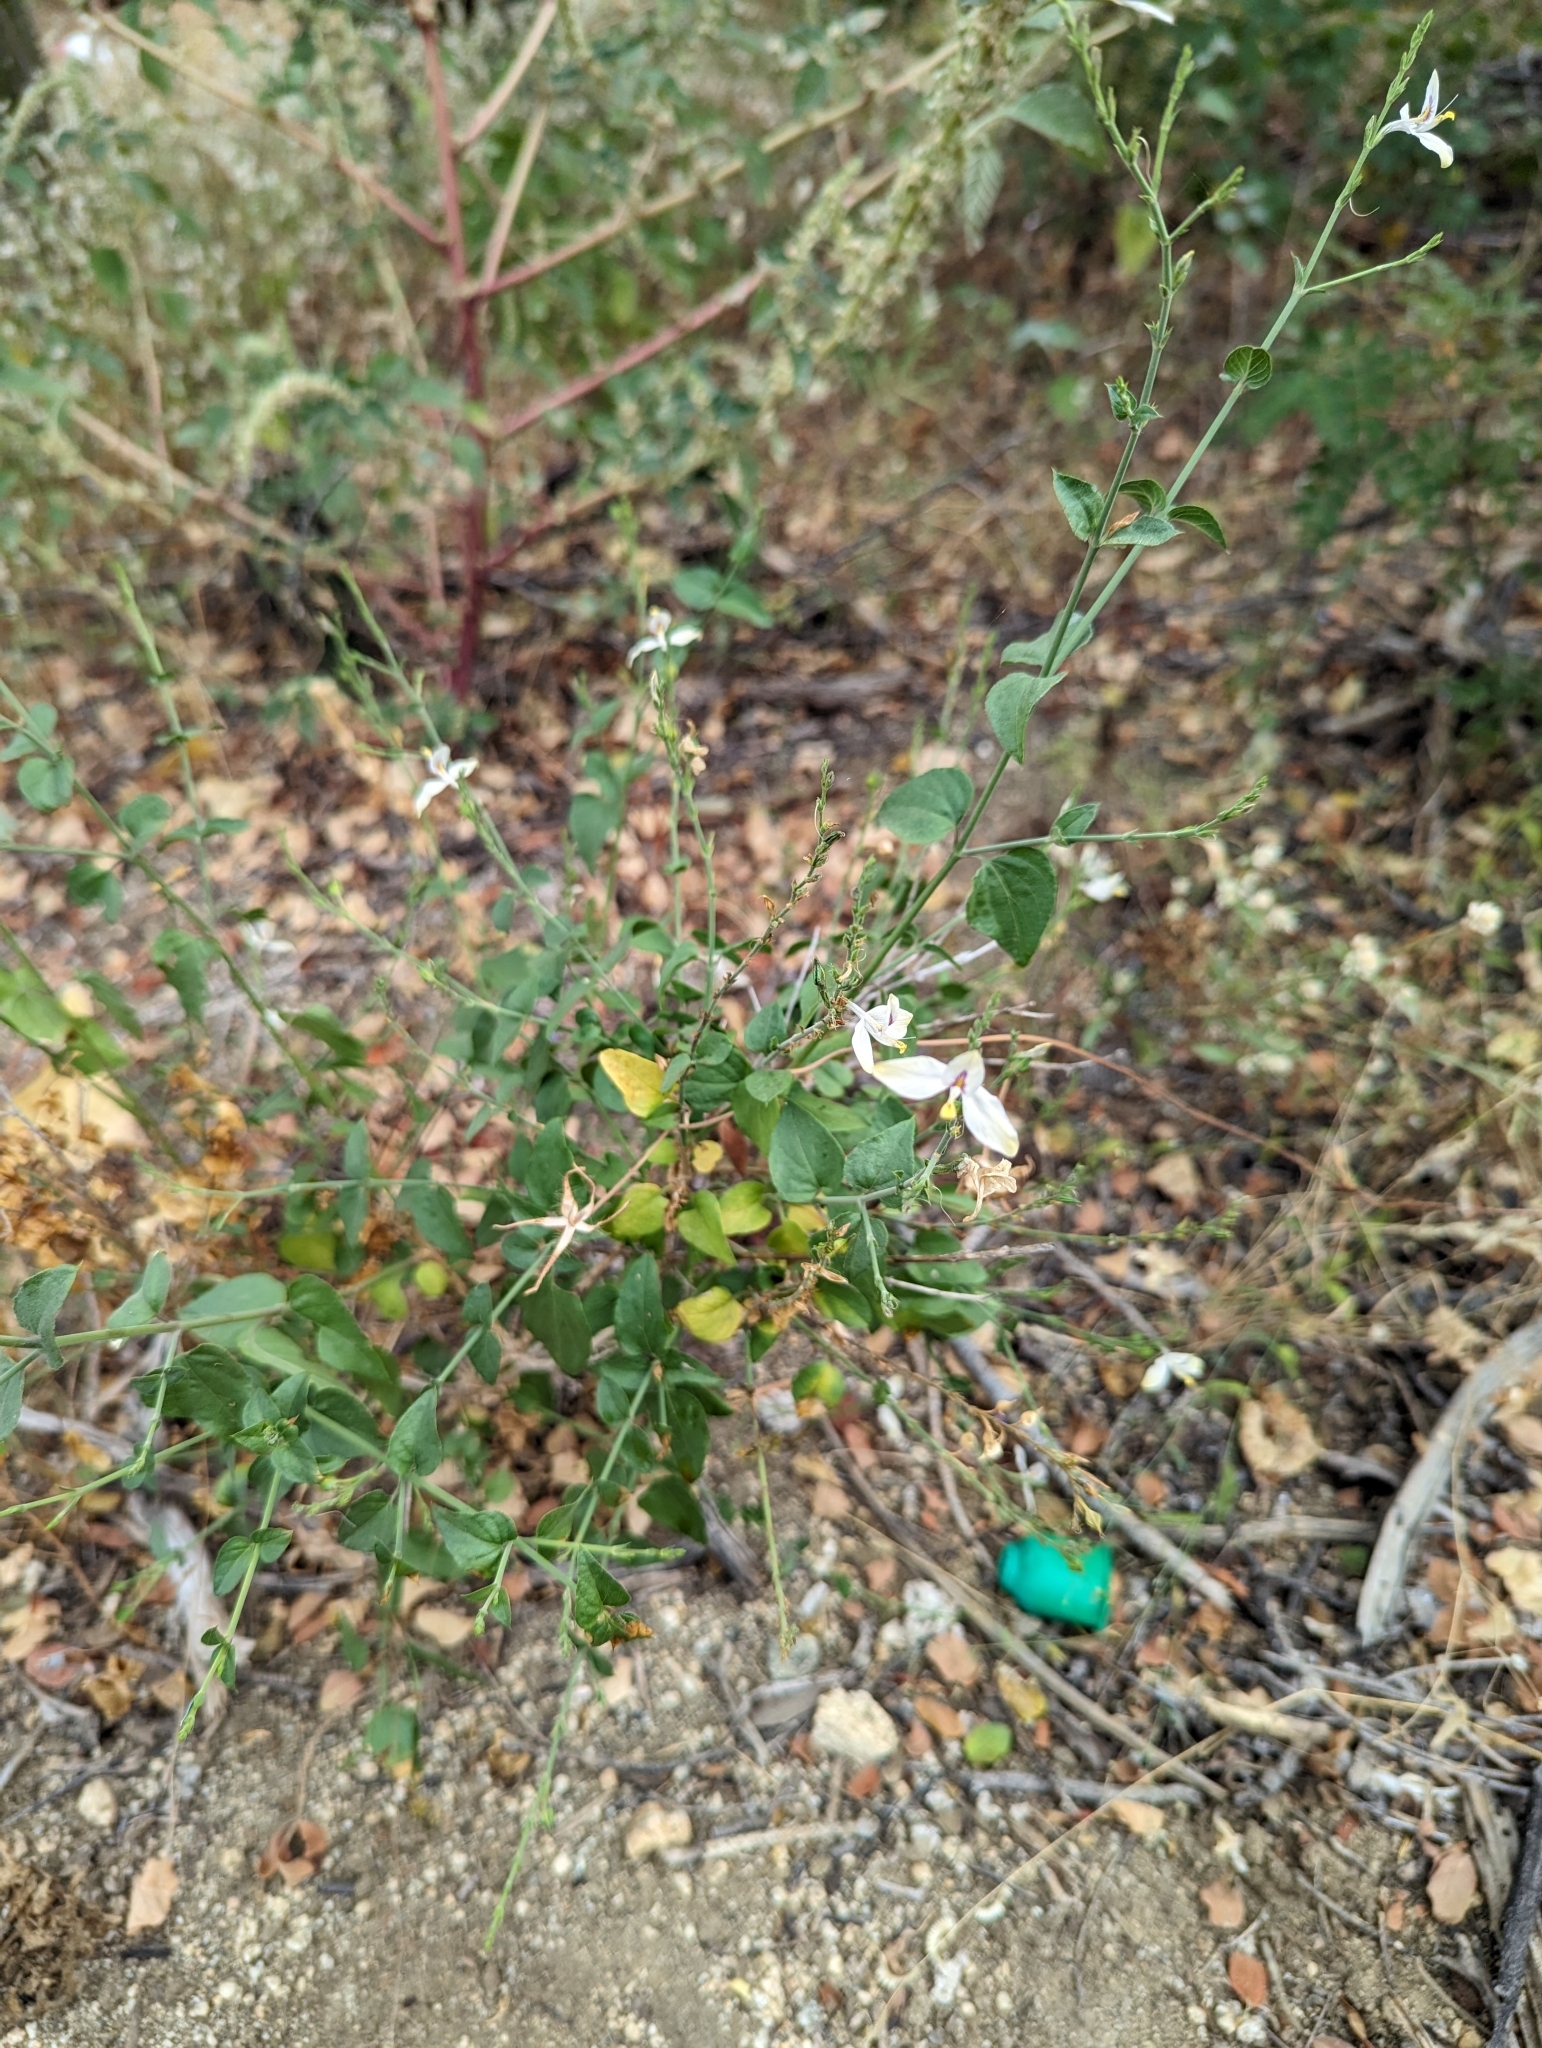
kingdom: Plantae
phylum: Tracheophyta
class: Magnoliopsida
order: Lamiales
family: Acanthaceae
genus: Carlowrightia
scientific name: Carlowrightia arizonica
